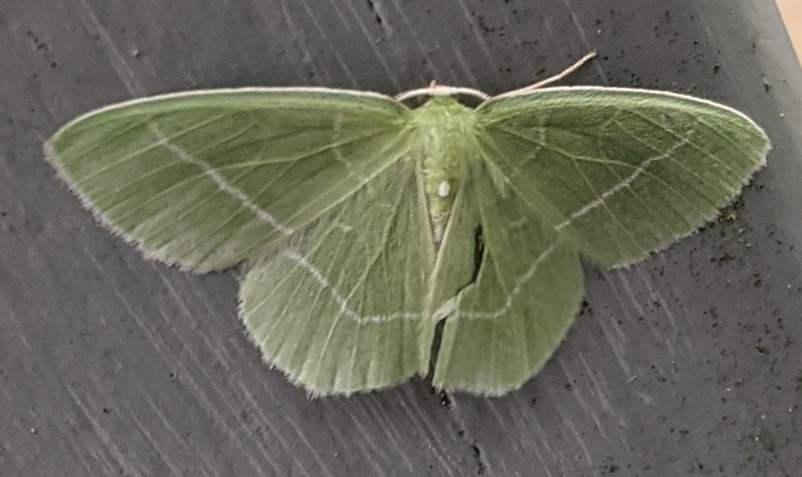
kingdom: Animalia
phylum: Arthropoda
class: Insecta
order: Lepidoptera
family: Geometridae
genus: Nemoria
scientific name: Nemoria mimosaria
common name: White-fringed emerald
